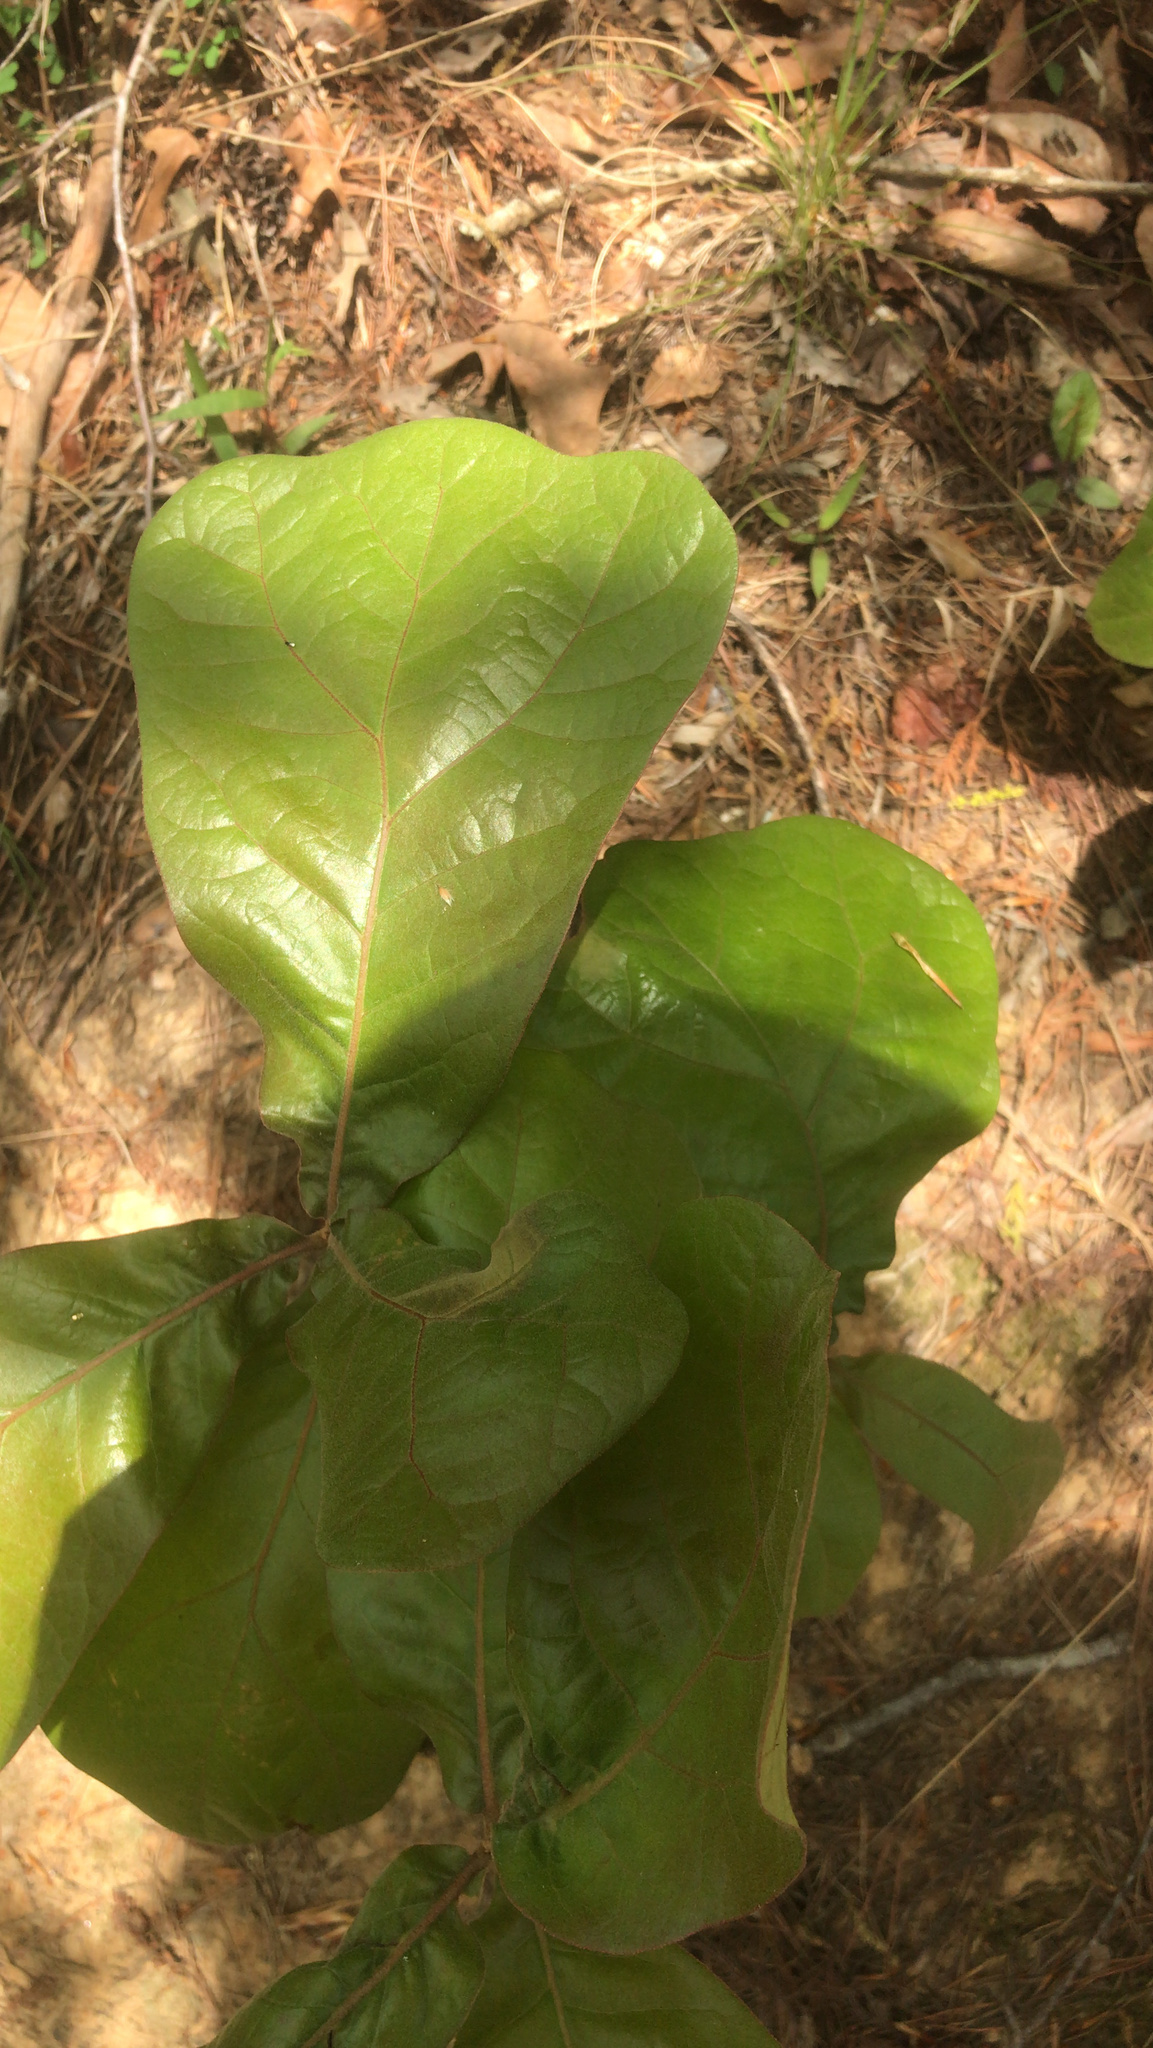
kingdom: Plantae
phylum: Tracheophyta
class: Magnoliopsida
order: Fagales
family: Fagaceae
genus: Quercus
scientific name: Quercus marilandica
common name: Blackjack oak
